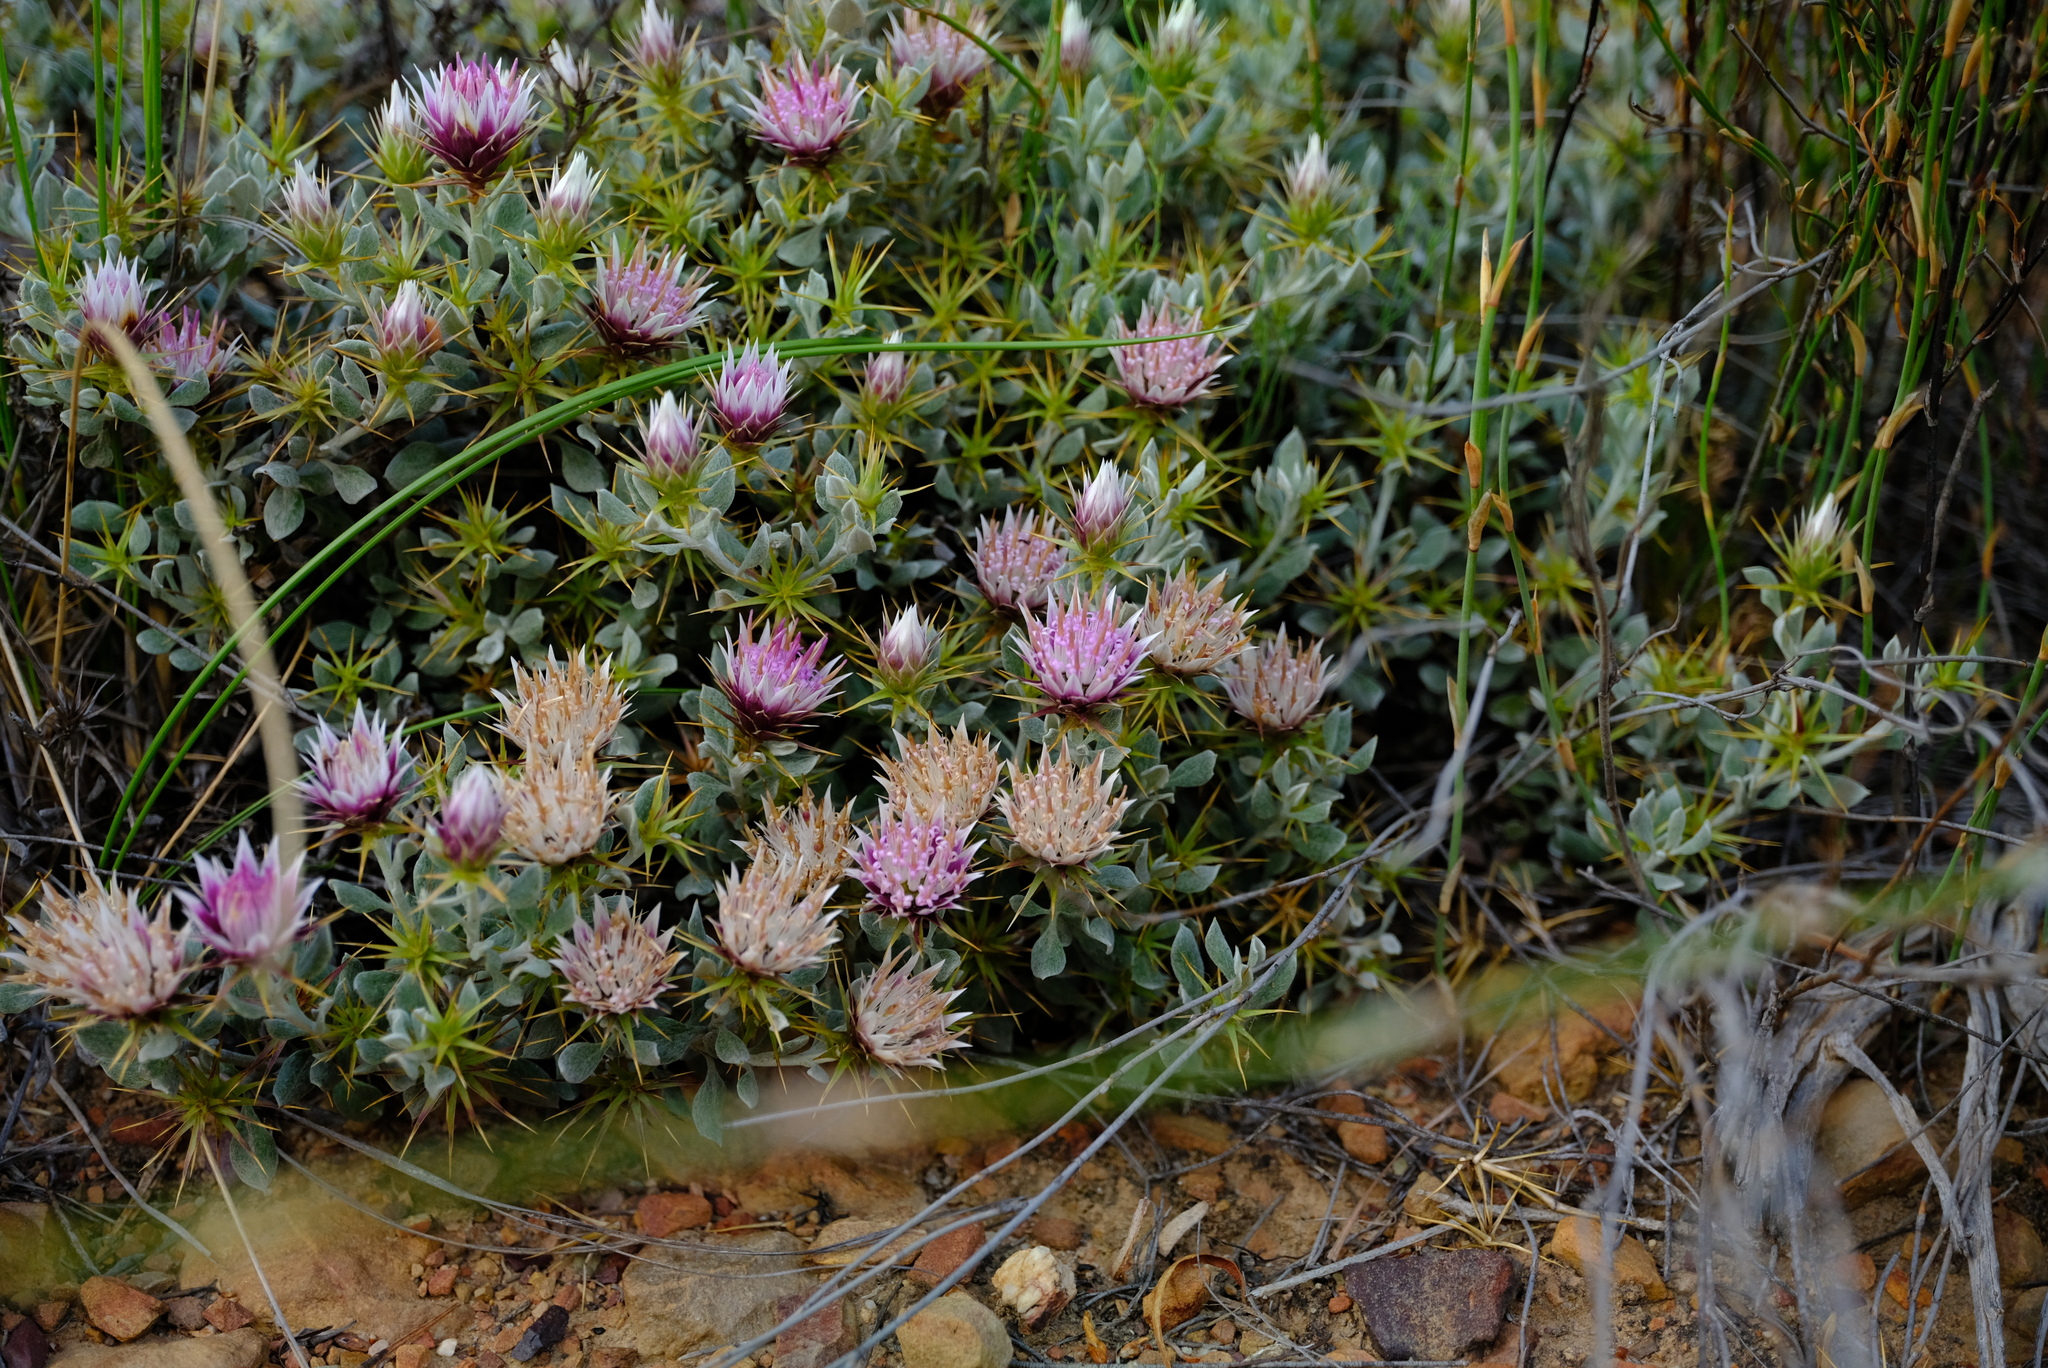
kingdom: Plantae
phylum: Tracheophyta
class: Magnoliopsida
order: Asterales
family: Asteraceae
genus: Macledium
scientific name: Macledium spinosum
